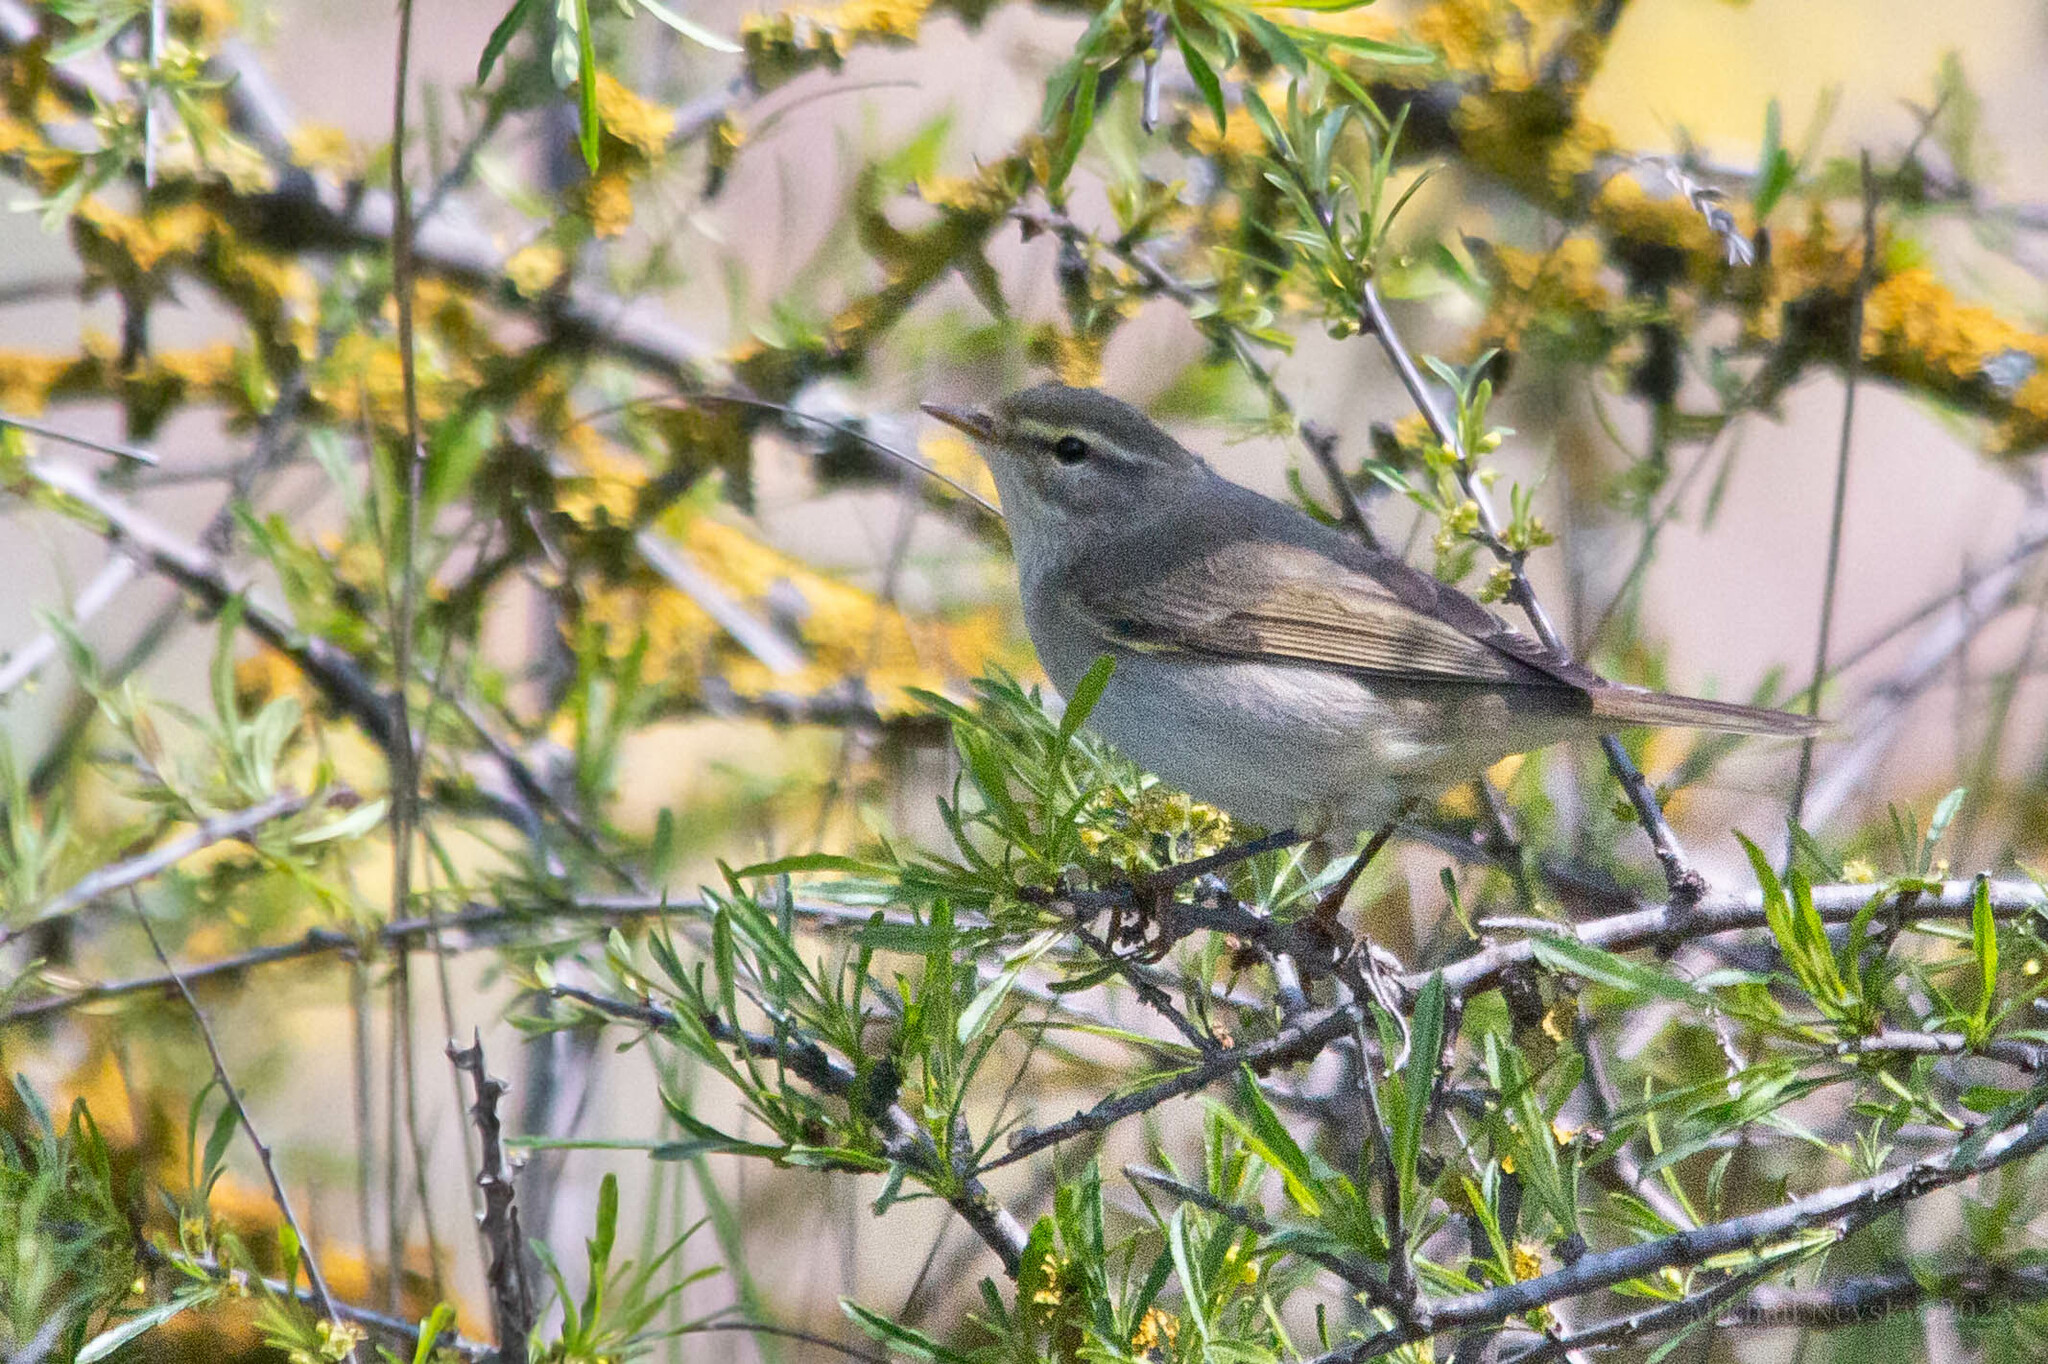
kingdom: Animalia
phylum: Chordata
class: Aves
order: Passeriformes
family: Phylloscopidae
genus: Phylloscopus
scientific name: Phylloscopus trochilus
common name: Willow warbler
